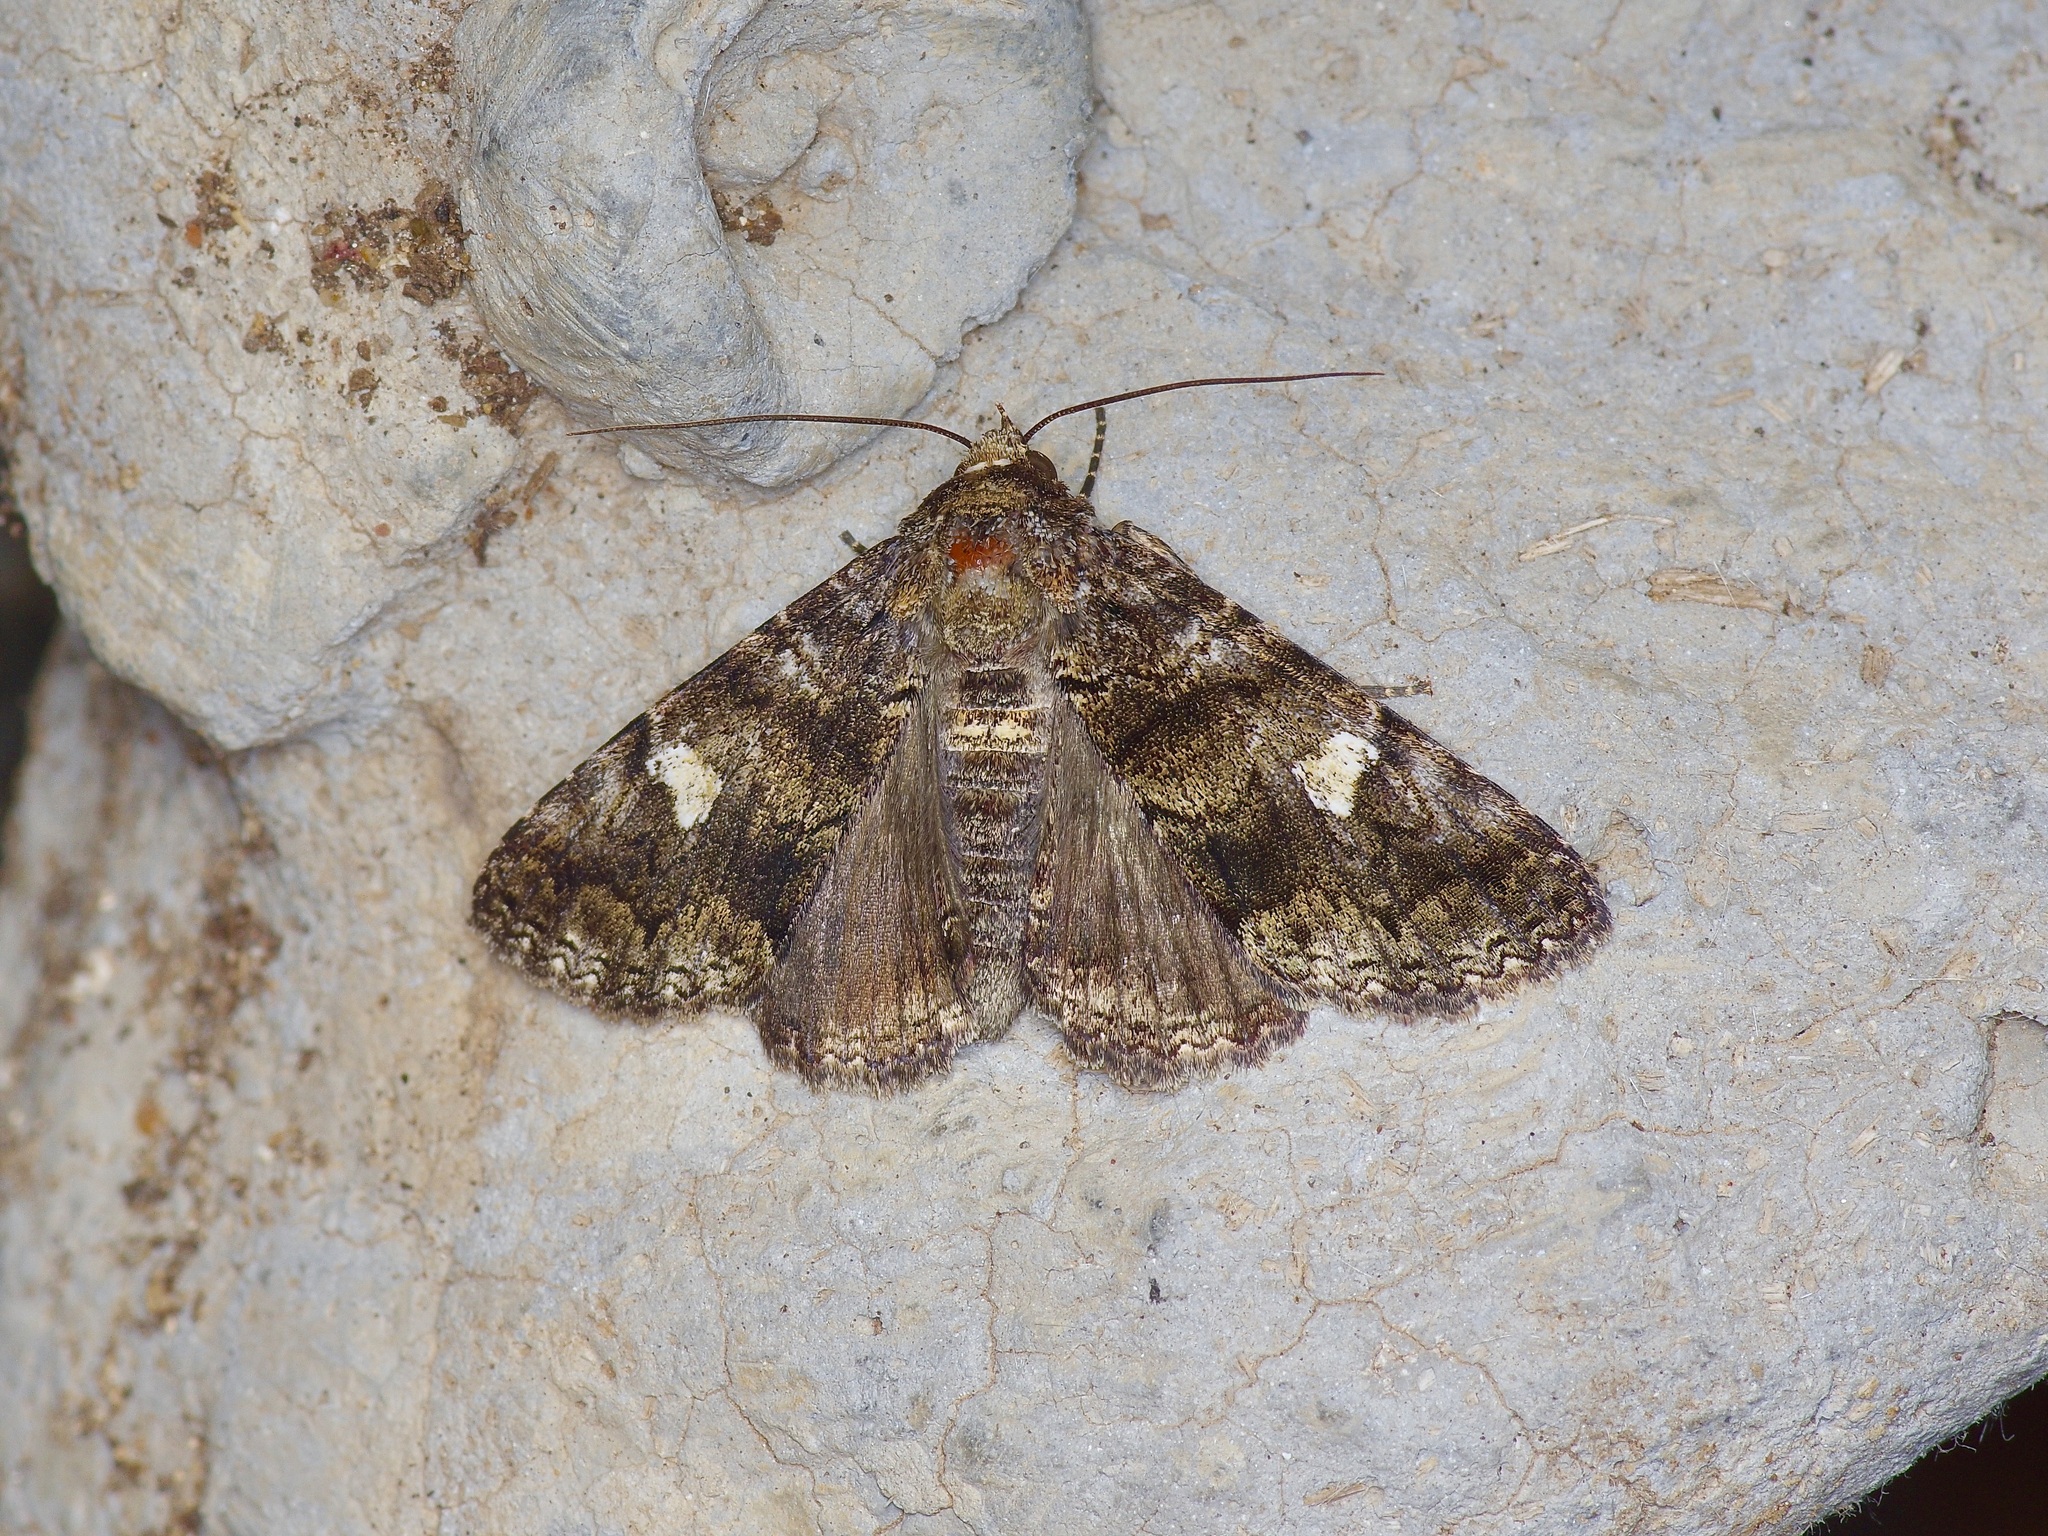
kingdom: Animalia
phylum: Arthropoda
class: Insecta
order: Lepidoptera
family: Erebidae
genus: Metria
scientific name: Metria amella
